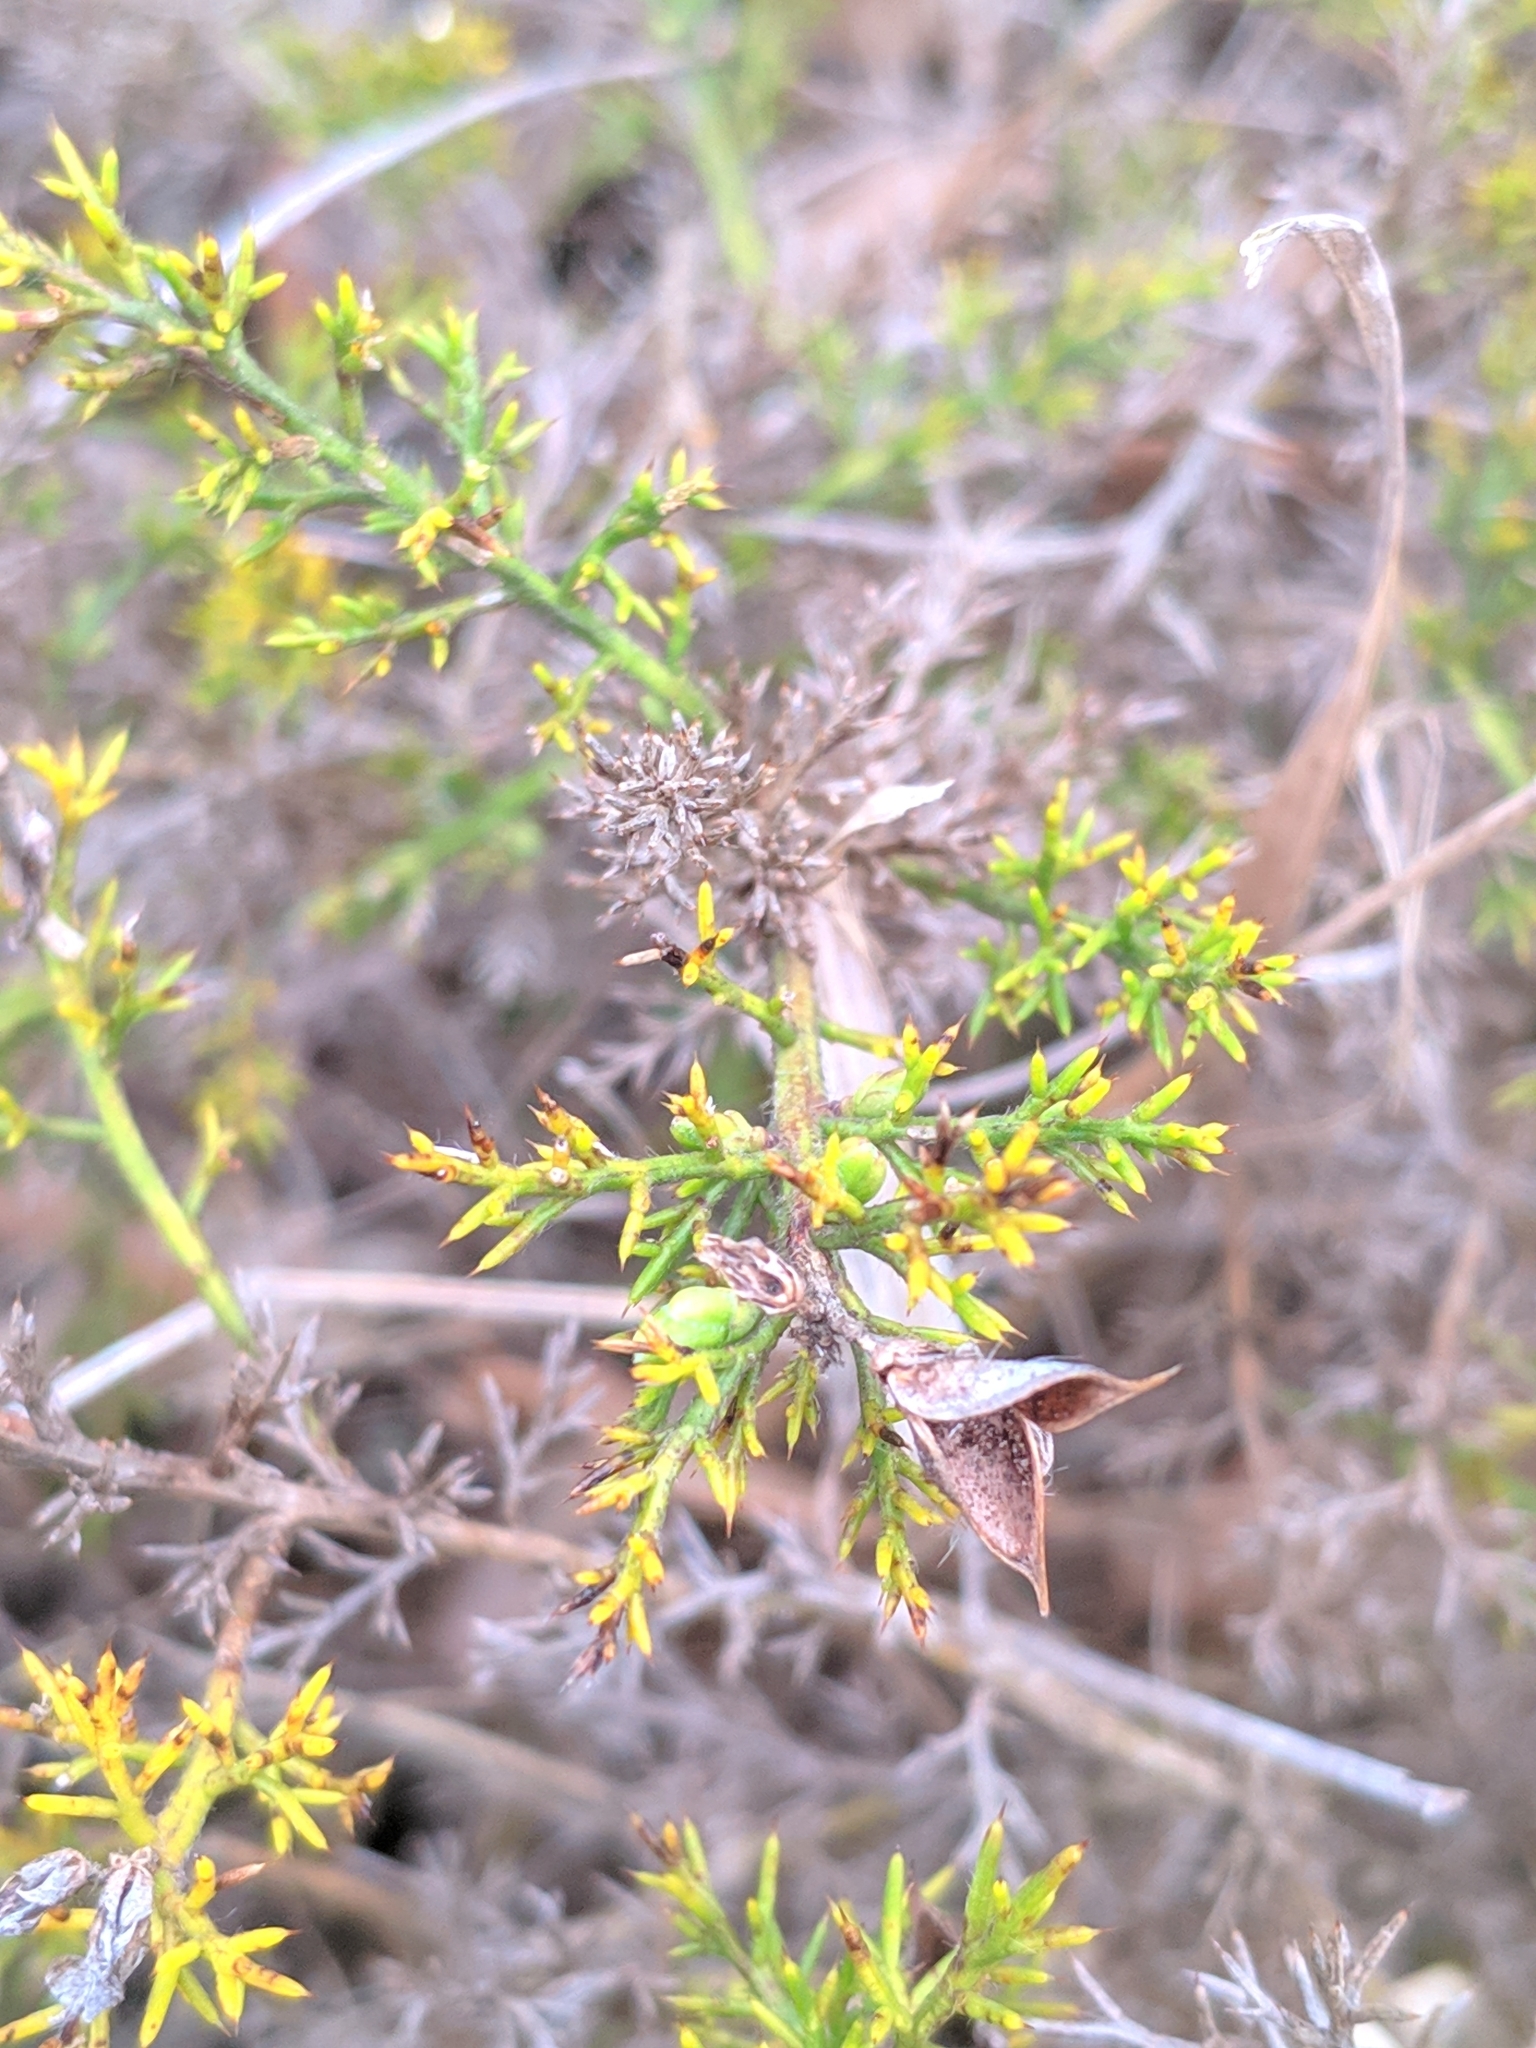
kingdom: Plantae
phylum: Tracheophyta
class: Magnoliopsida
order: Fabales
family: Fabaceae
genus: Genista
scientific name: Genista hispanica
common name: Spanish gorse
